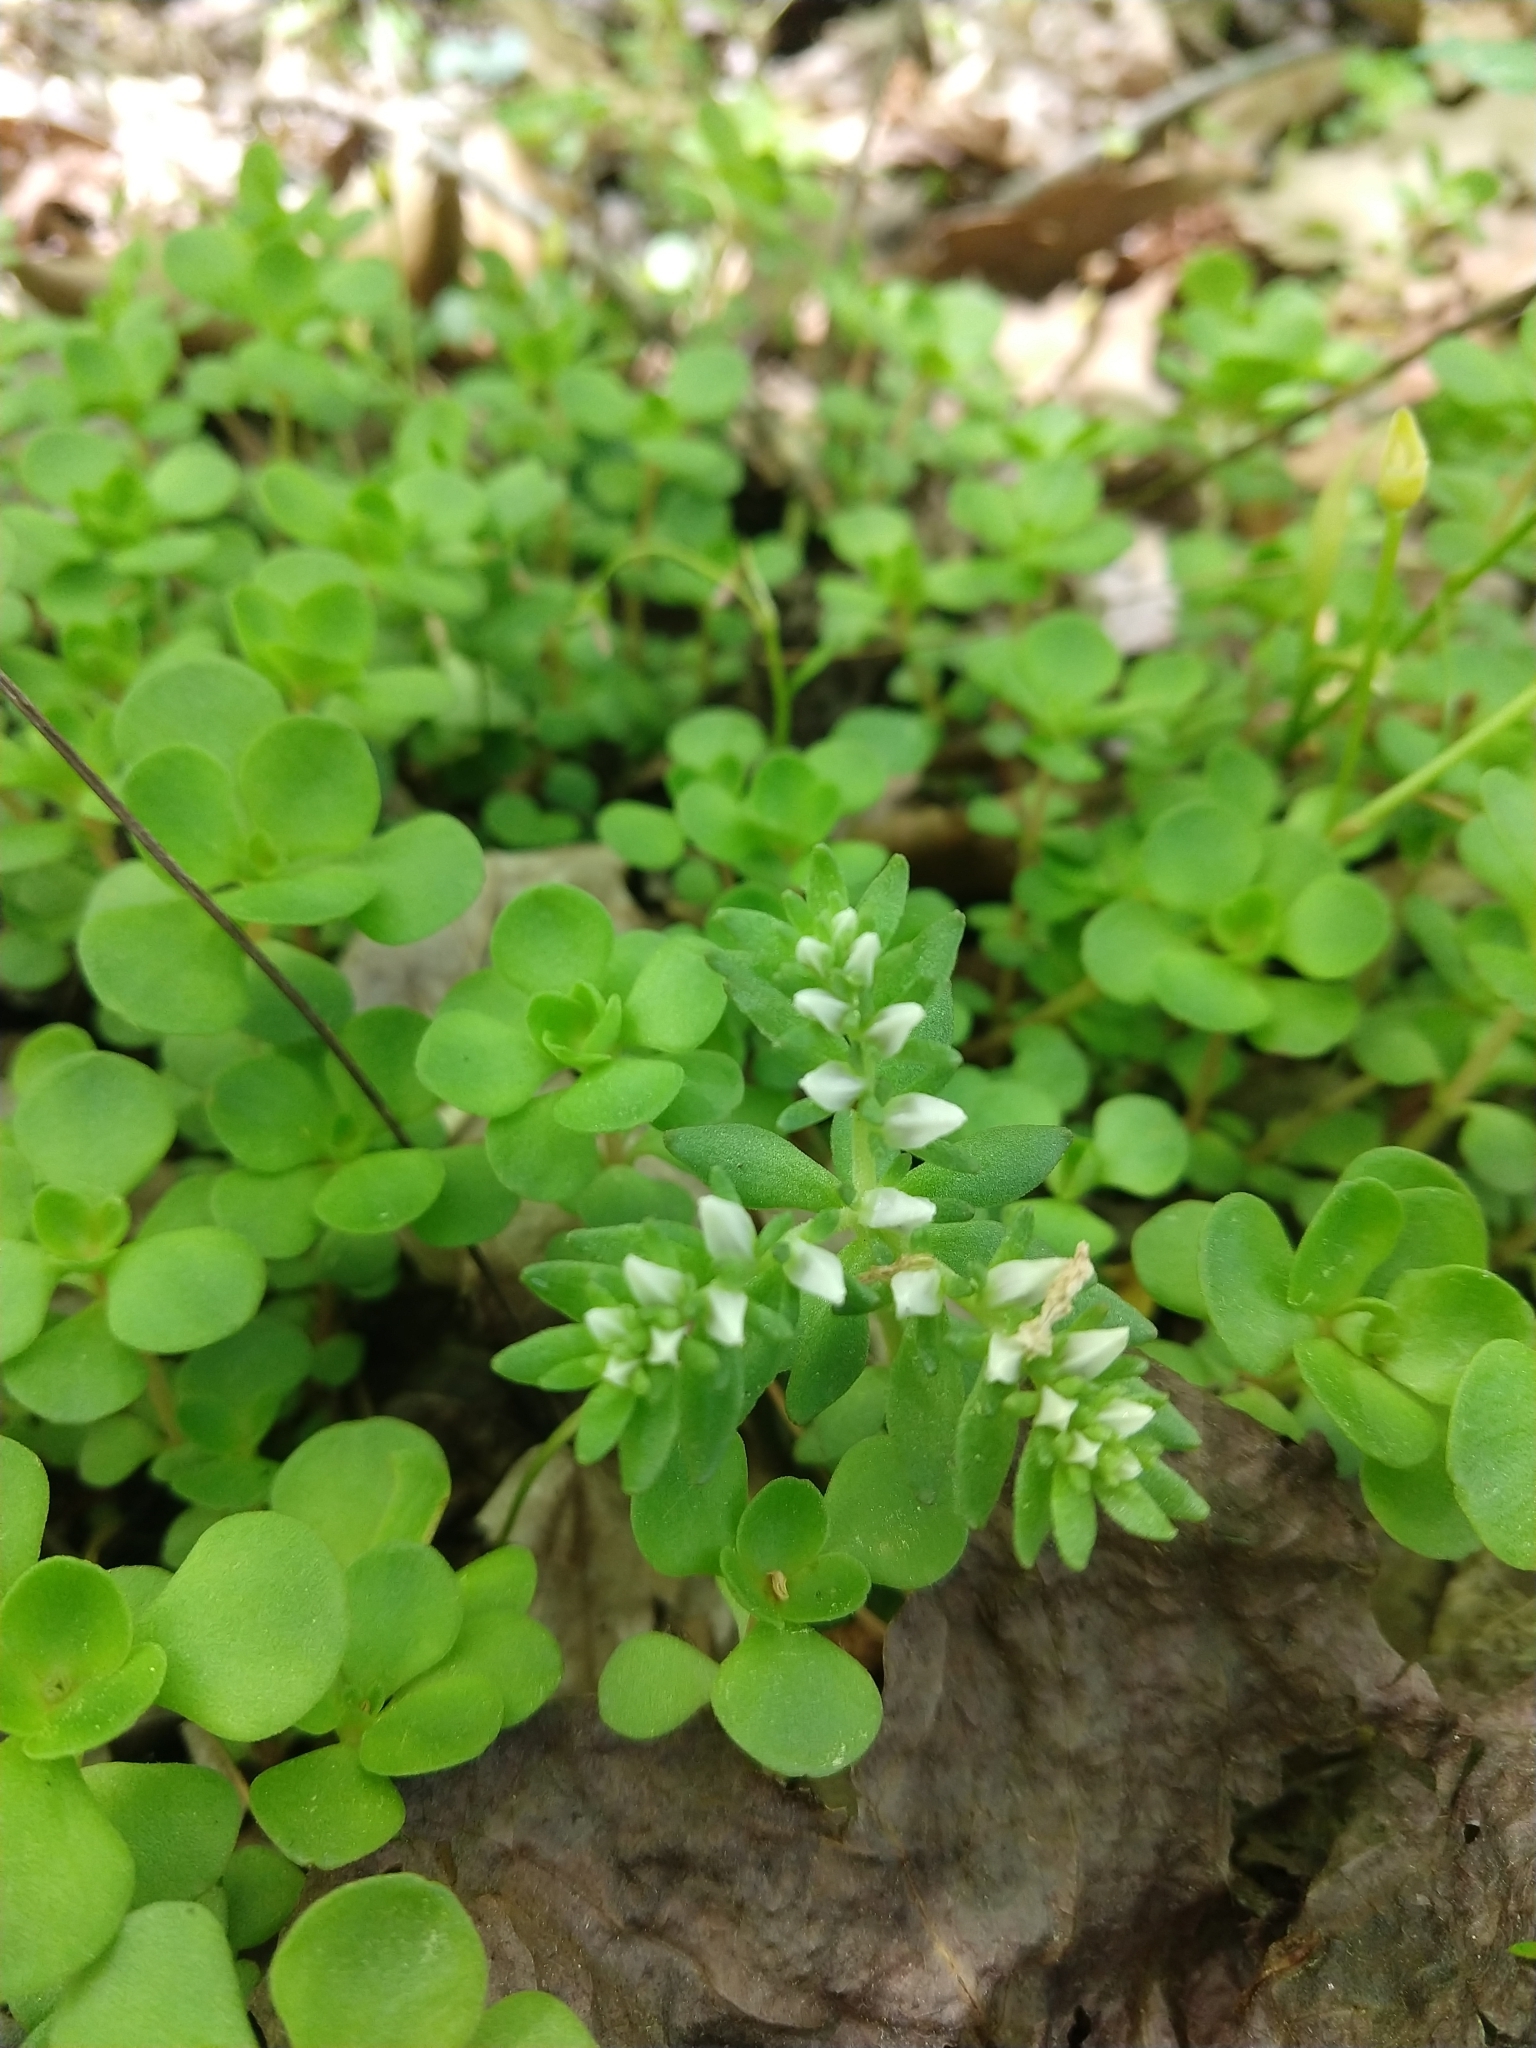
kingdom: Plantae
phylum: Tracheophyta
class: Magnoliopsida
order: Saxifragales
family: Crassulaceae
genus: Sedum
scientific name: Sedum ternatum
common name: Wild stonecrop
